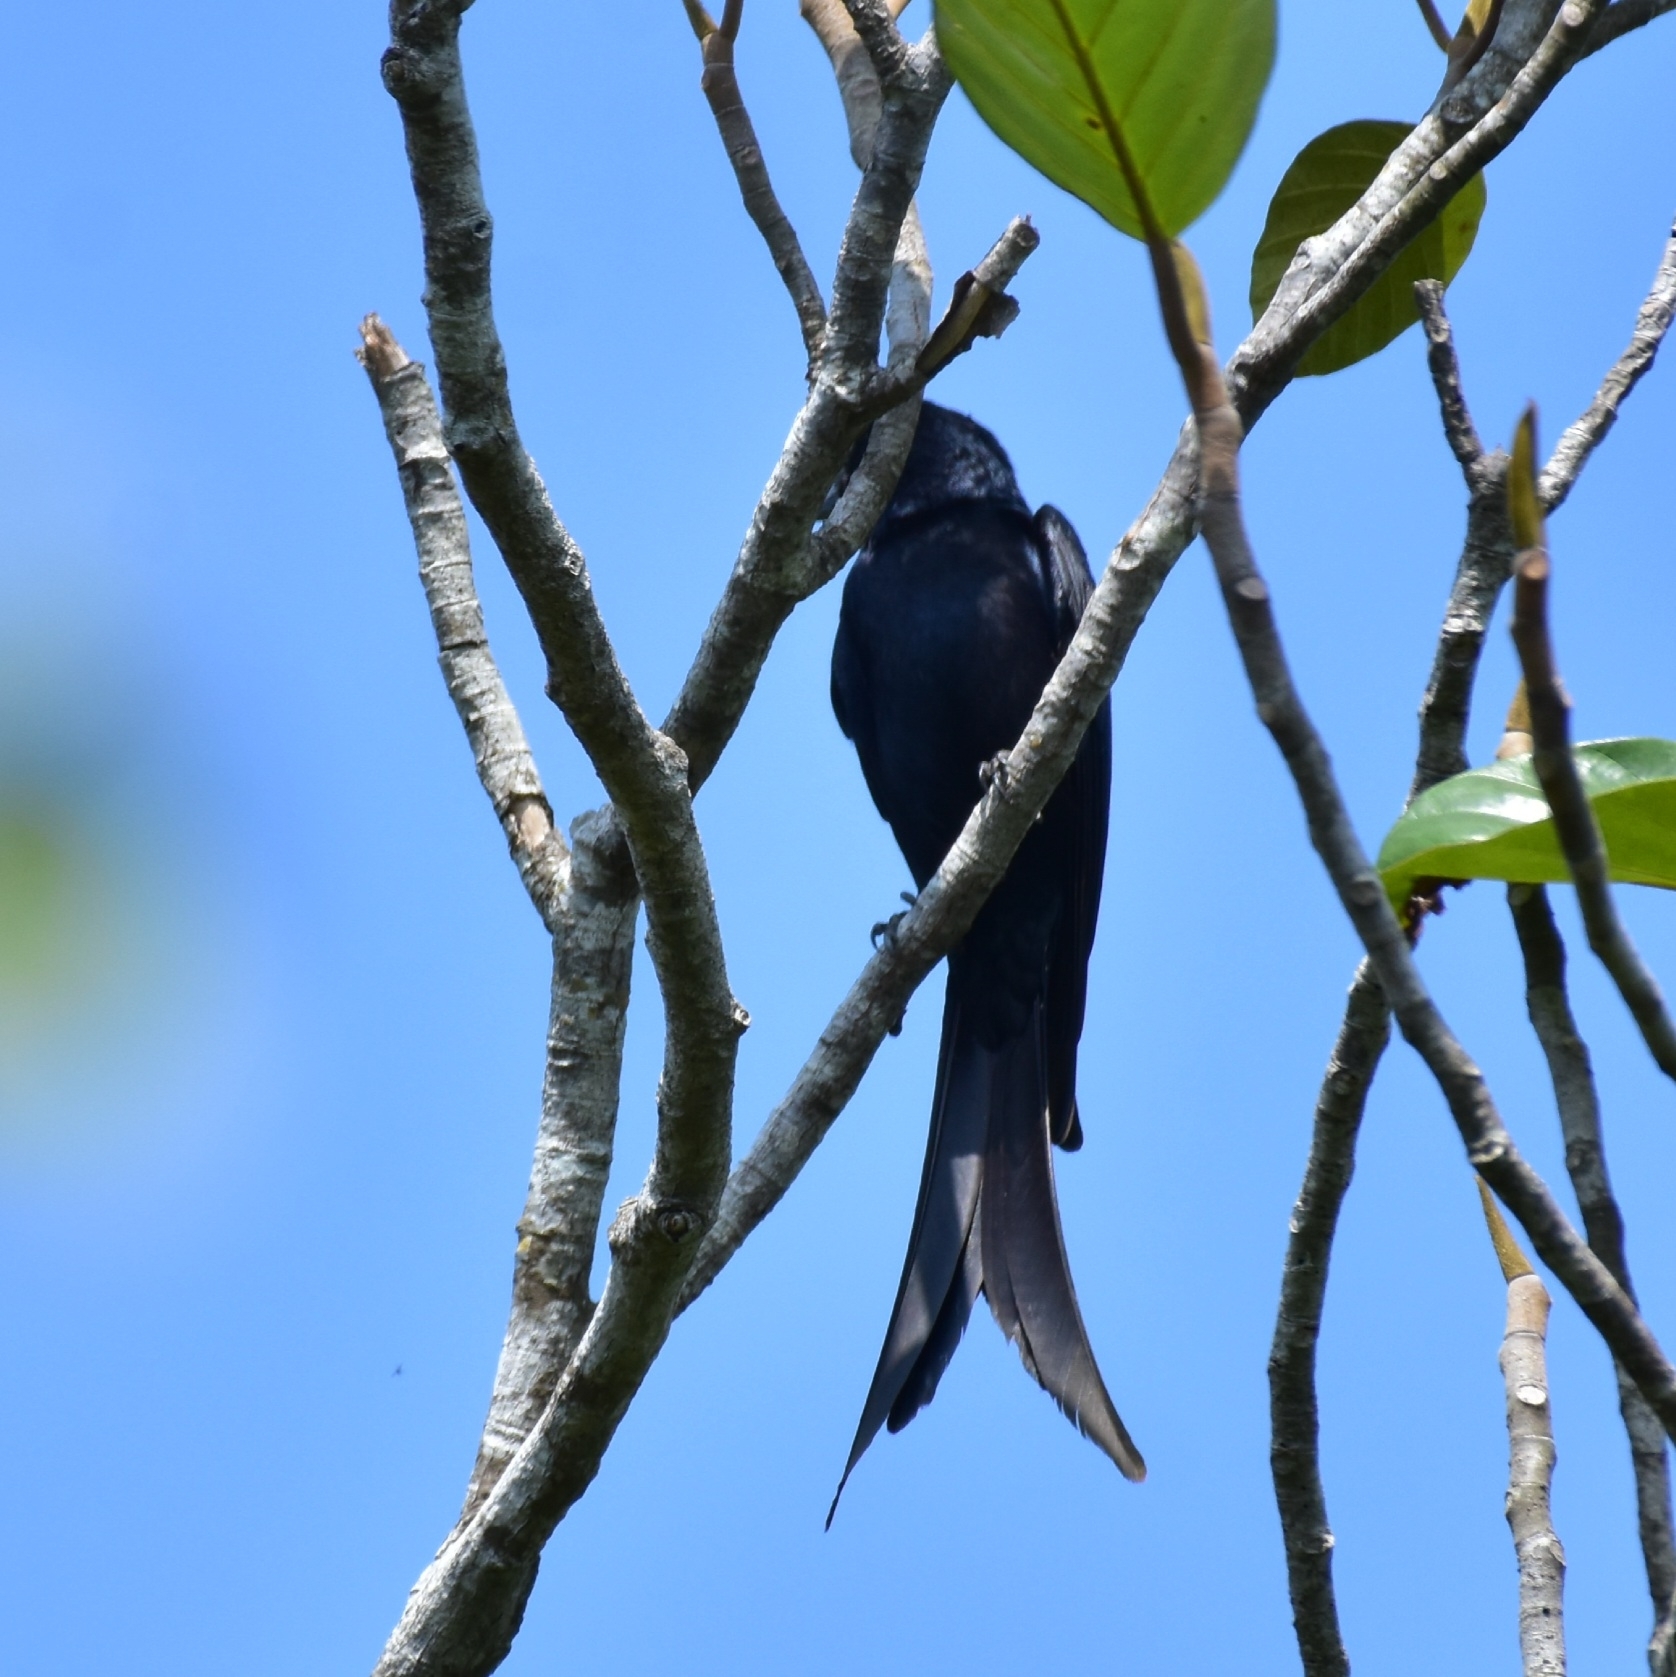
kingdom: Animalia
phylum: Chordata
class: Aves
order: Passeriformes
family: Dicruridae
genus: Dicrurus
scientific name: Dicrurus macrocercus
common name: Black drongo
